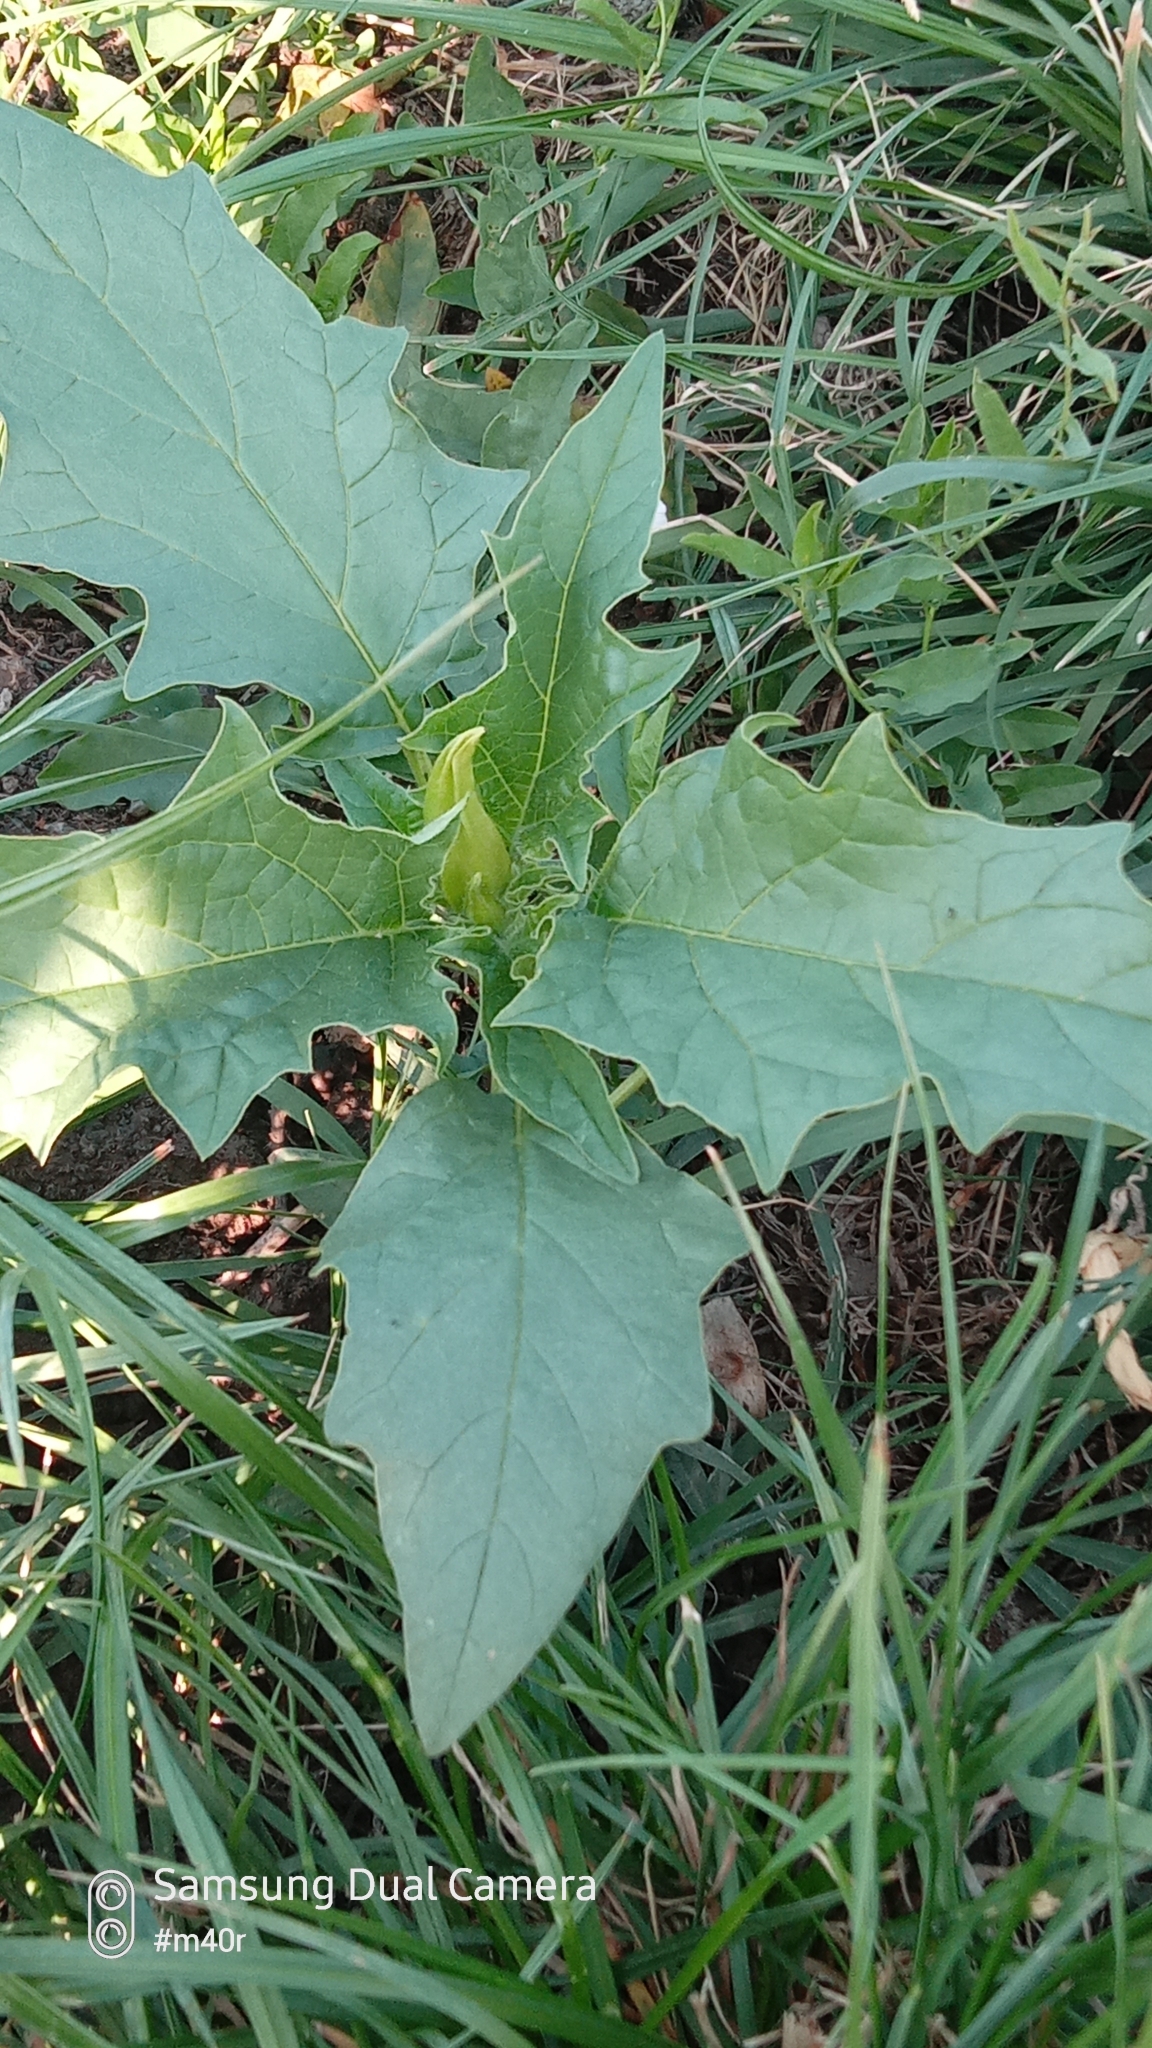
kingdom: Plantae
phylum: Tracheophyta
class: Magnoliopsida
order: Solanales
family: Solanaceae
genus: Datura
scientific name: Datura stramonium
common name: Thorn-apple
